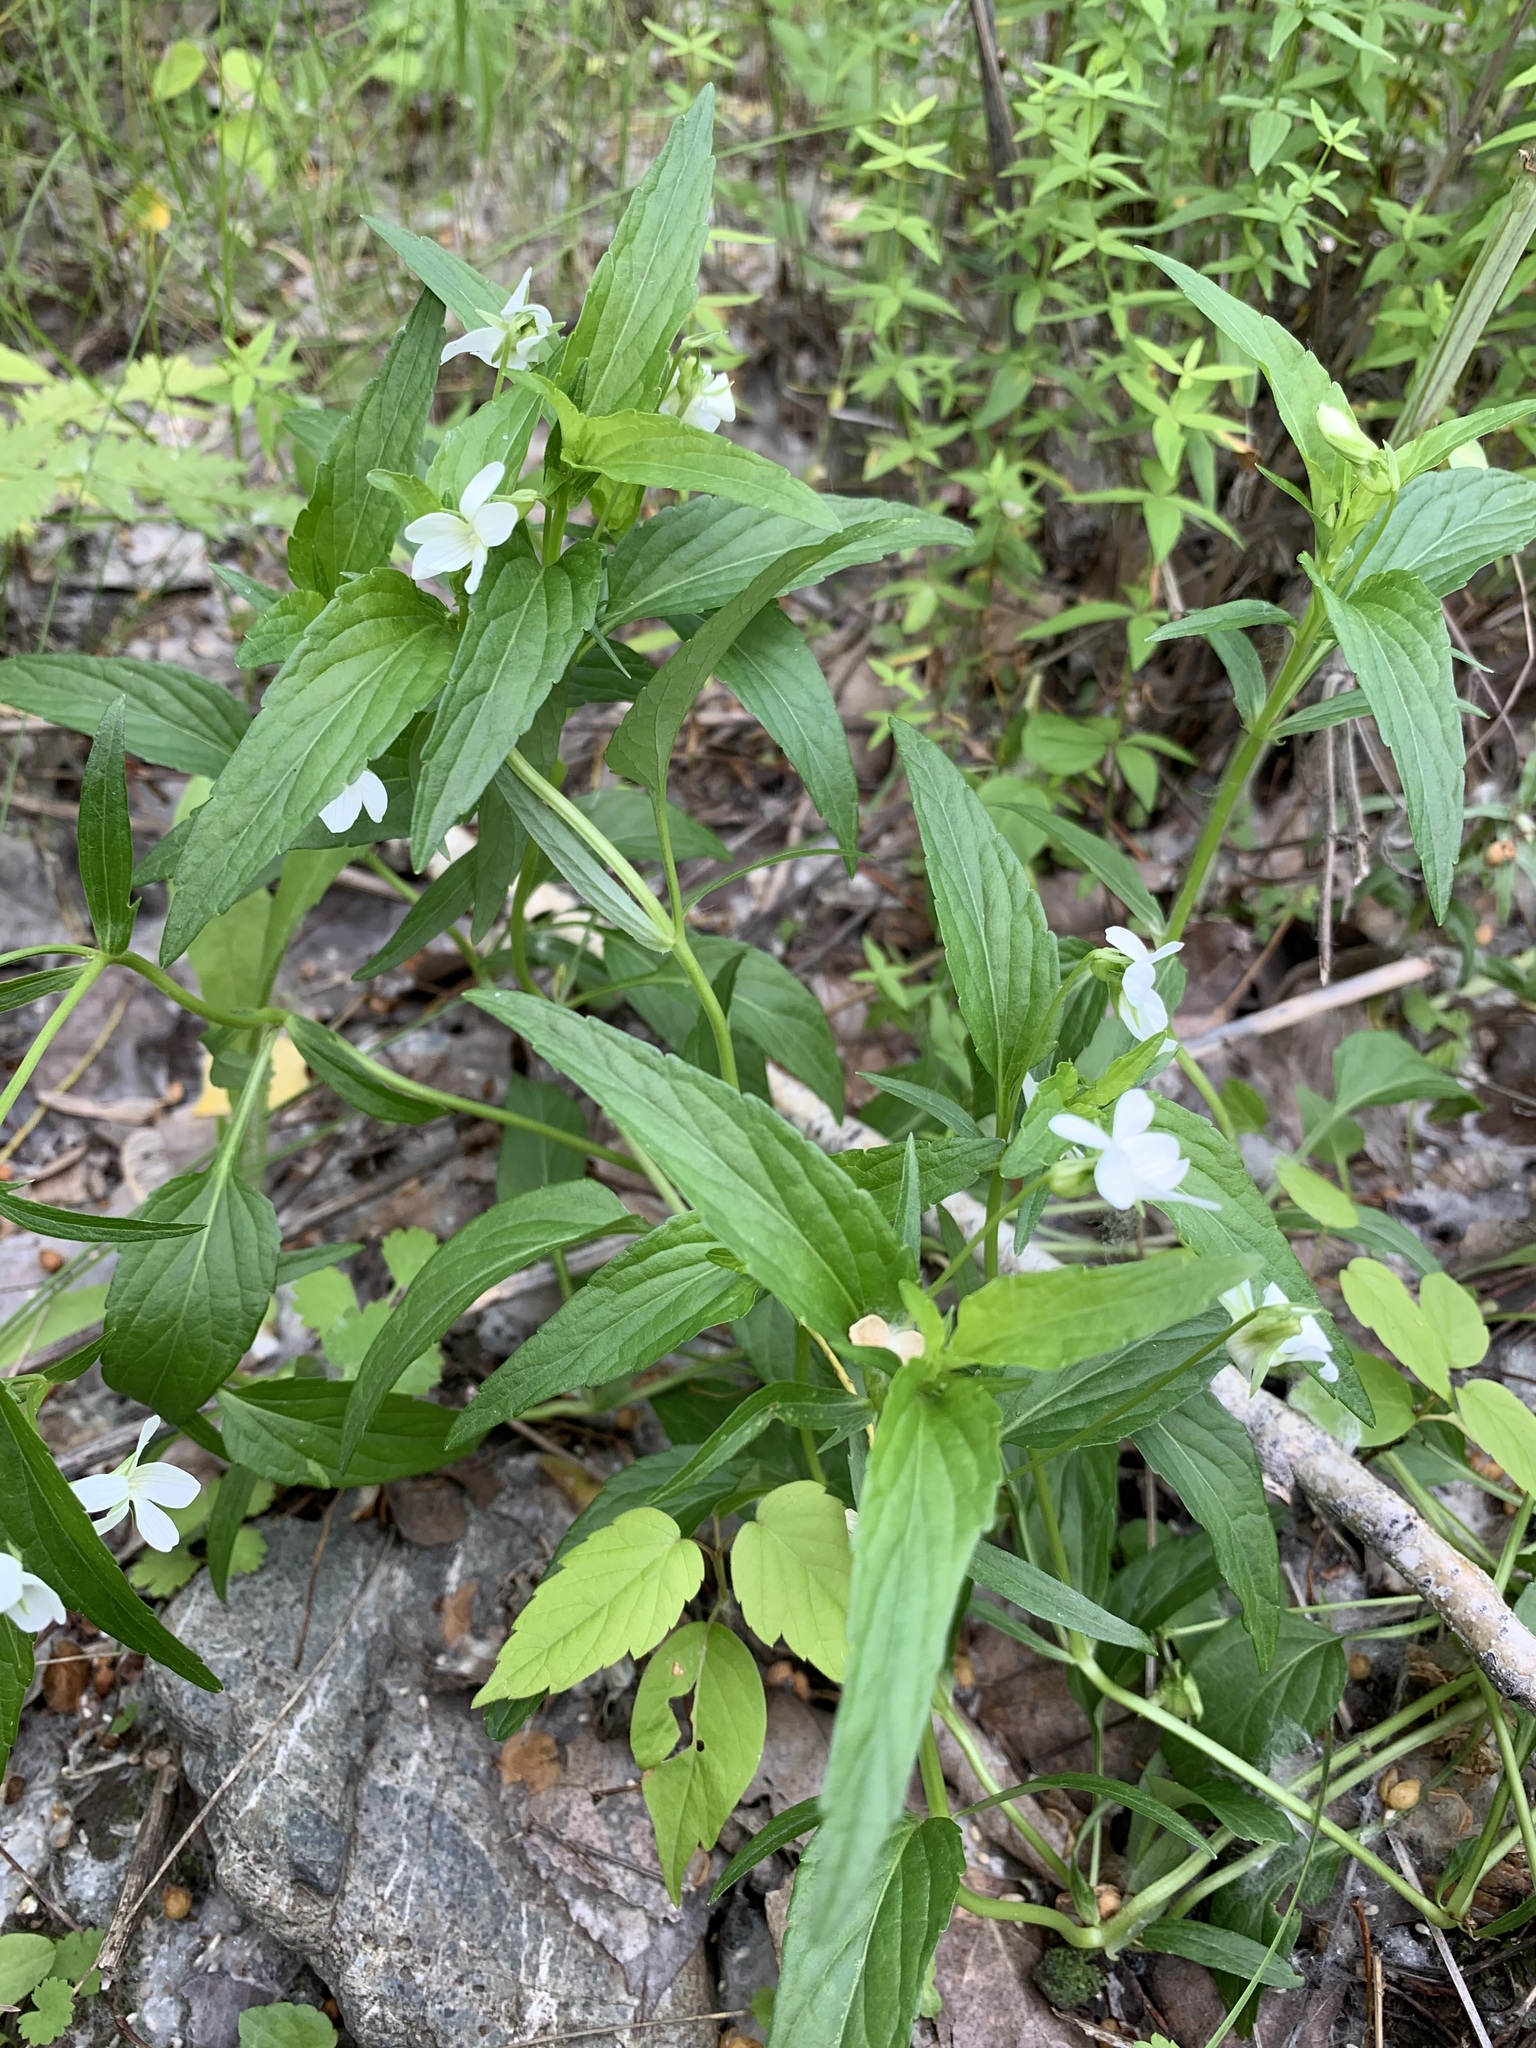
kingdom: Plantae
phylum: Tracheophyta
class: Magnoliopsida
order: Malpighiales
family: Violaceae
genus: Viola
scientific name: Viola elatior
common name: Tall violet
